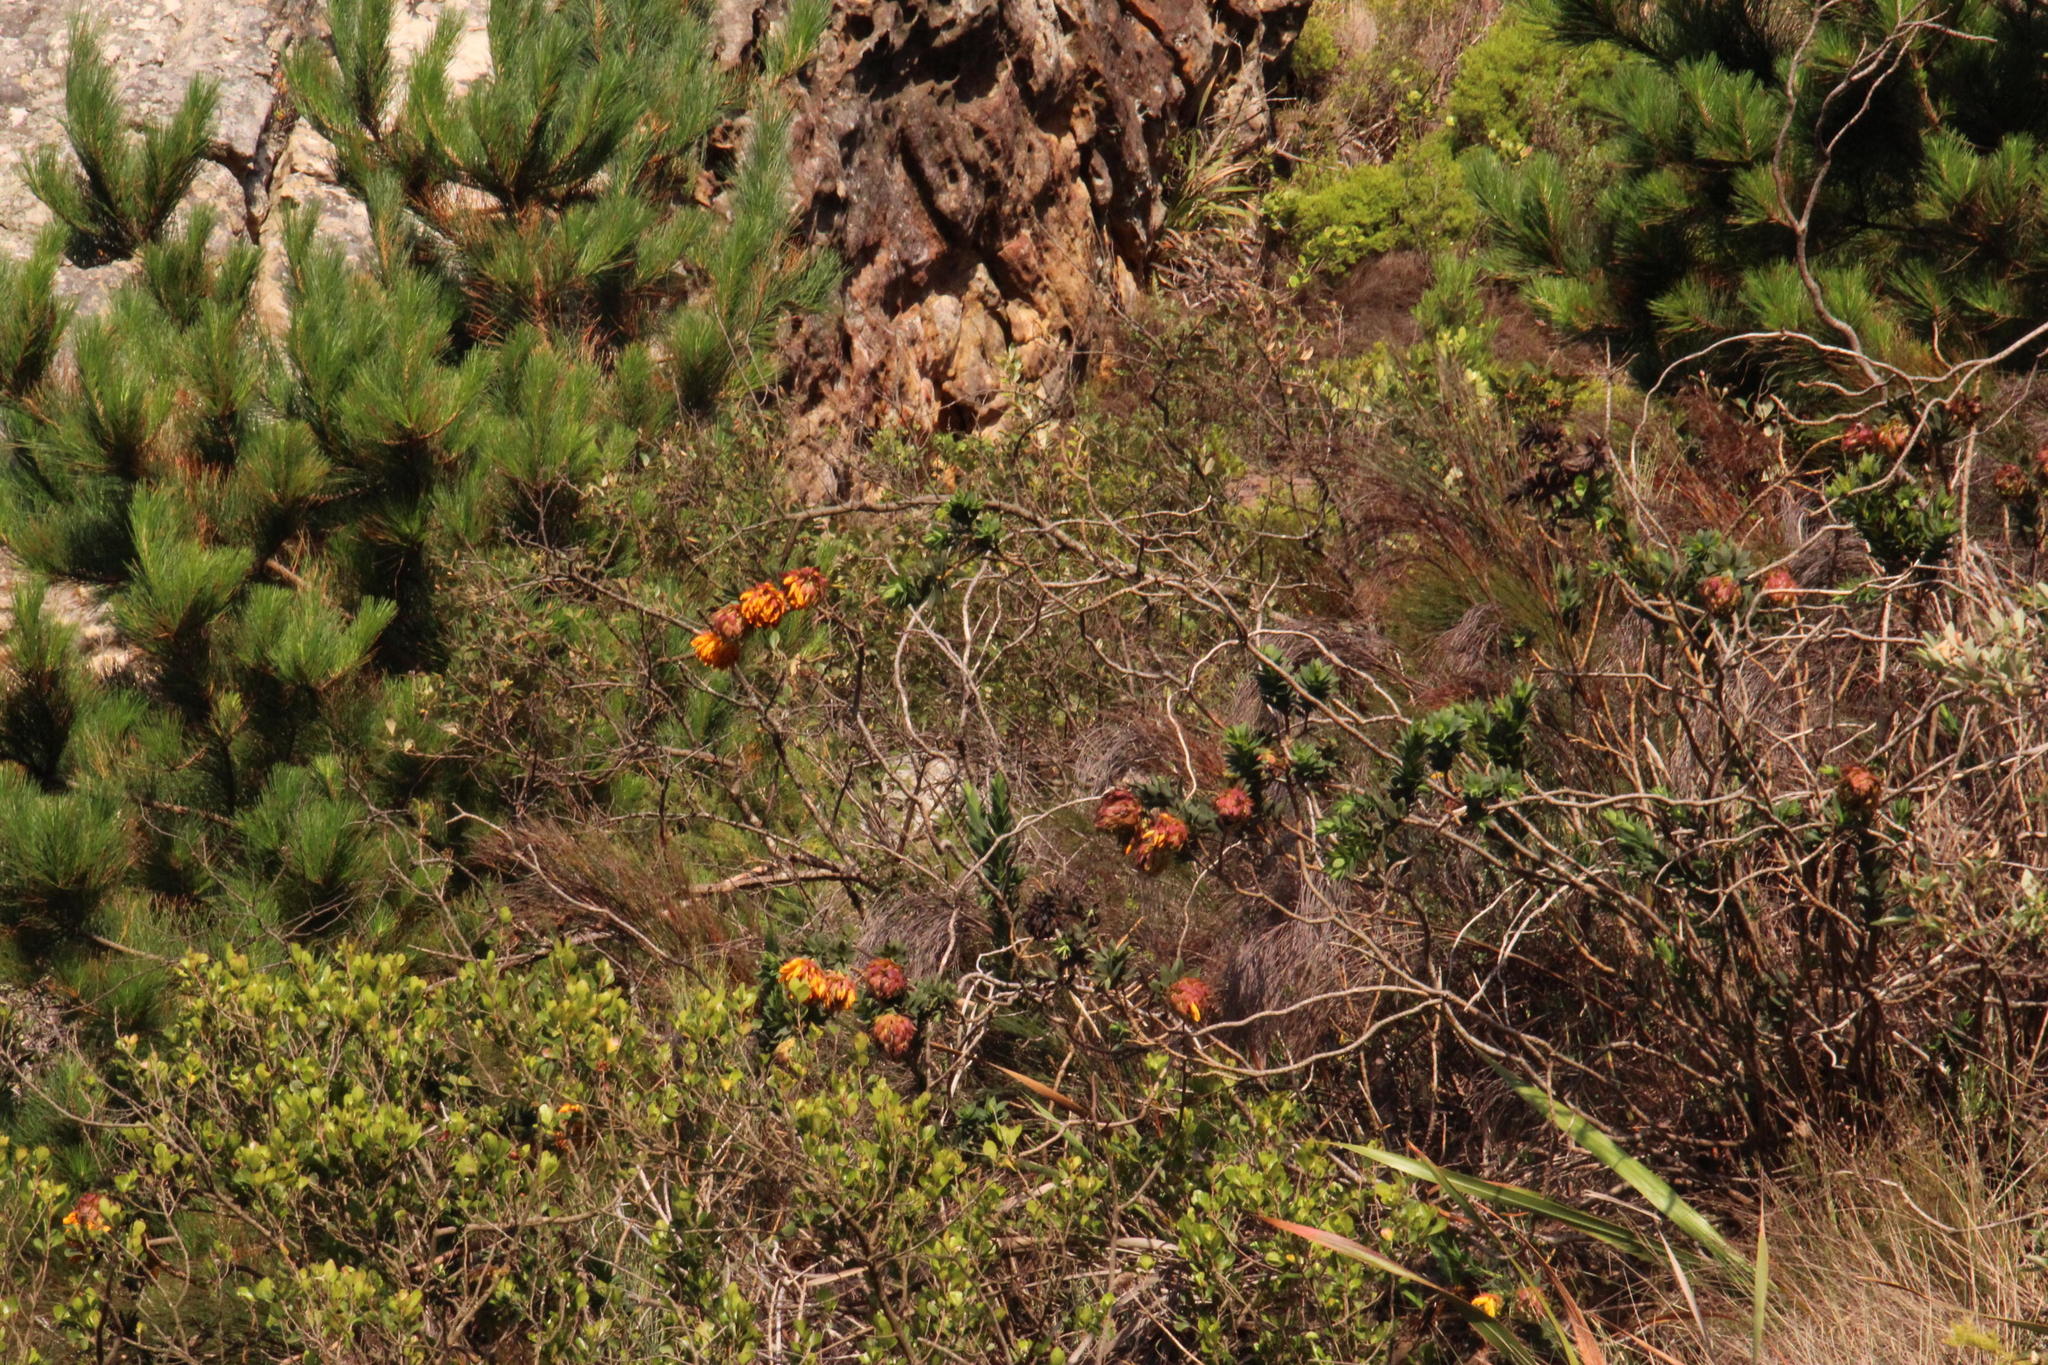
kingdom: Plantae
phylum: Tracheophyta
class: Magnoliopsida
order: Fabales
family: Fabaceae
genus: Liparia
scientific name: Liparia splendens
